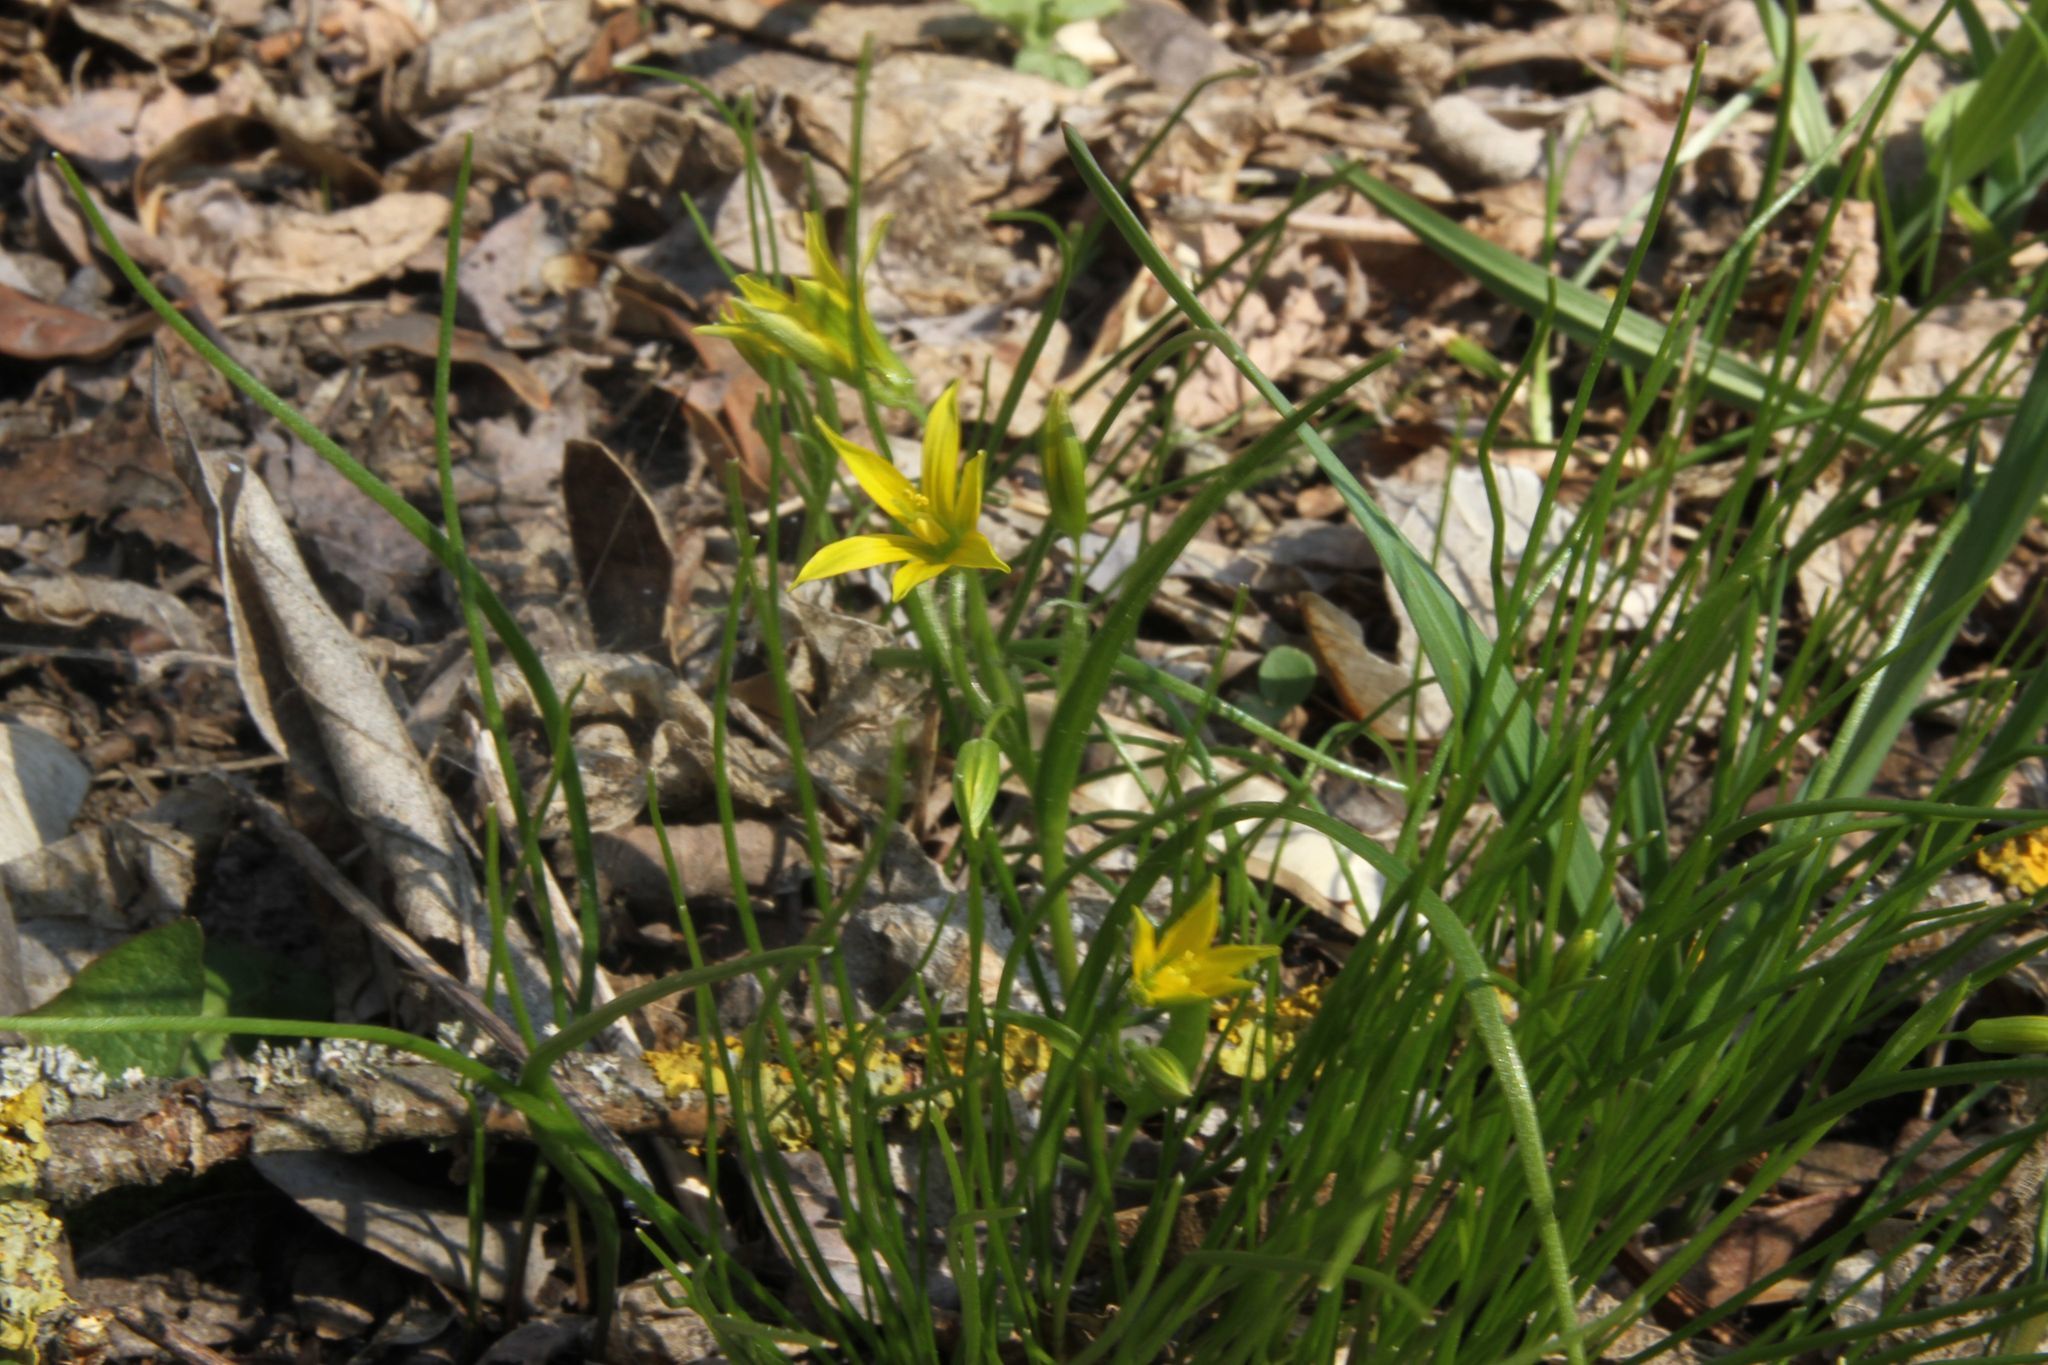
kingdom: Plantae
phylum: Tracheophyta
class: Liliopsida
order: Liliales
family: Liliaceae
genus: Gagea
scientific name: Gagea minima
